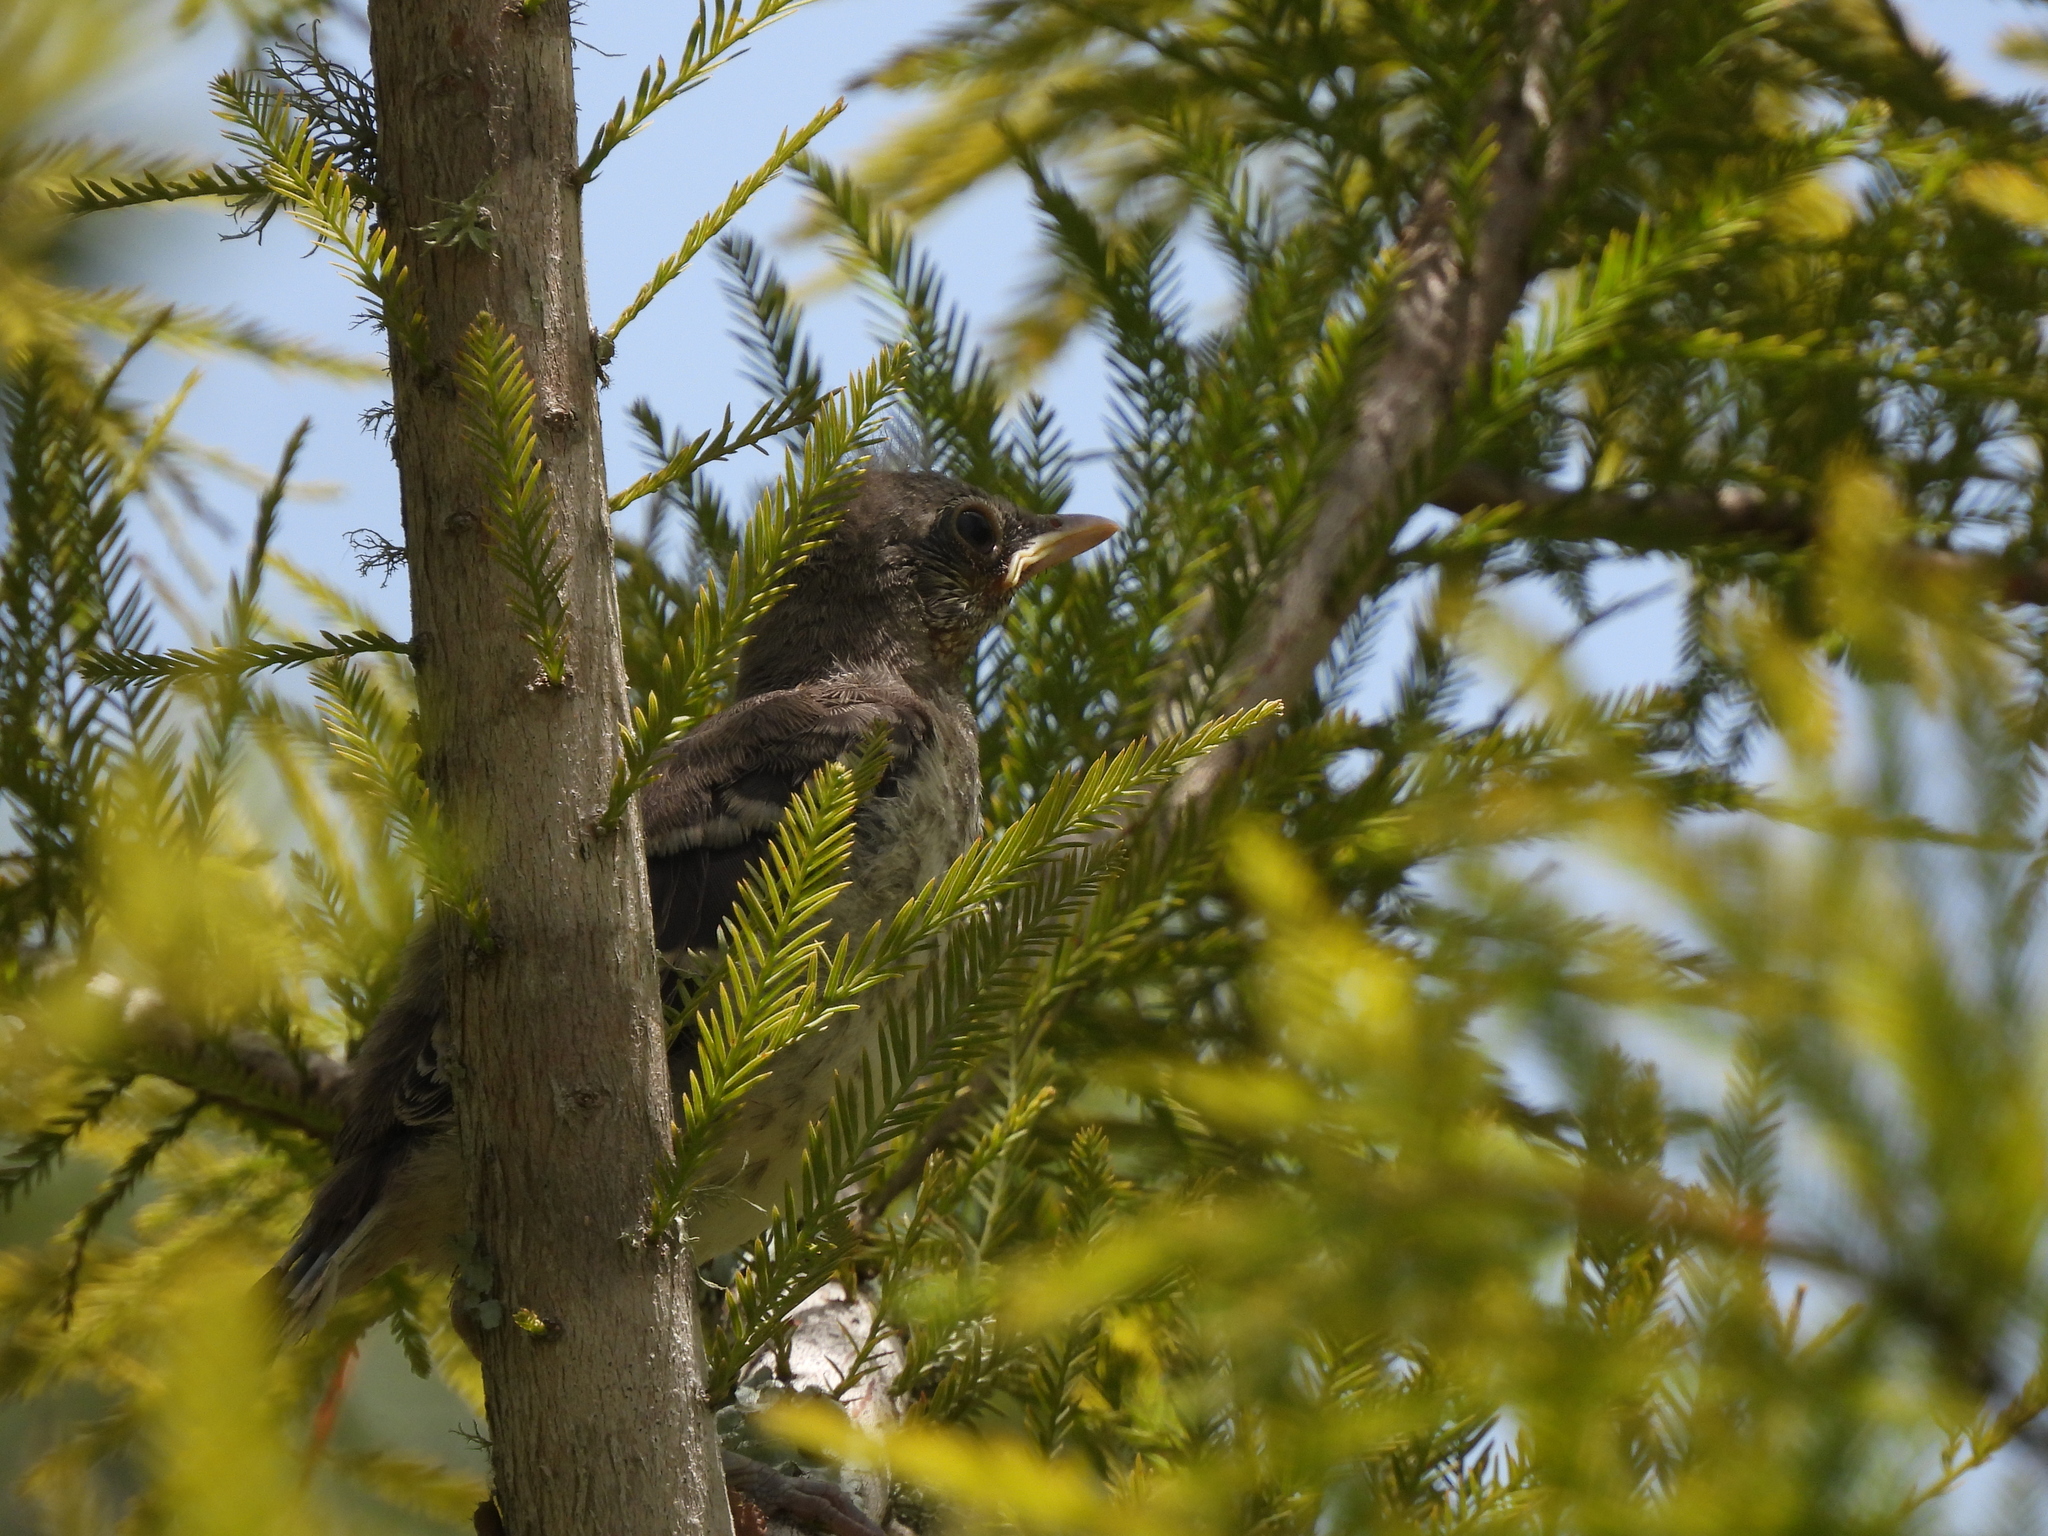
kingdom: Animalia
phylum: Chordata
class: Aves
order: Passeriformes
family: Mimidae
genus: Mimus
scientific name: Mimus polyglottos
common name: Northern mockingbird
